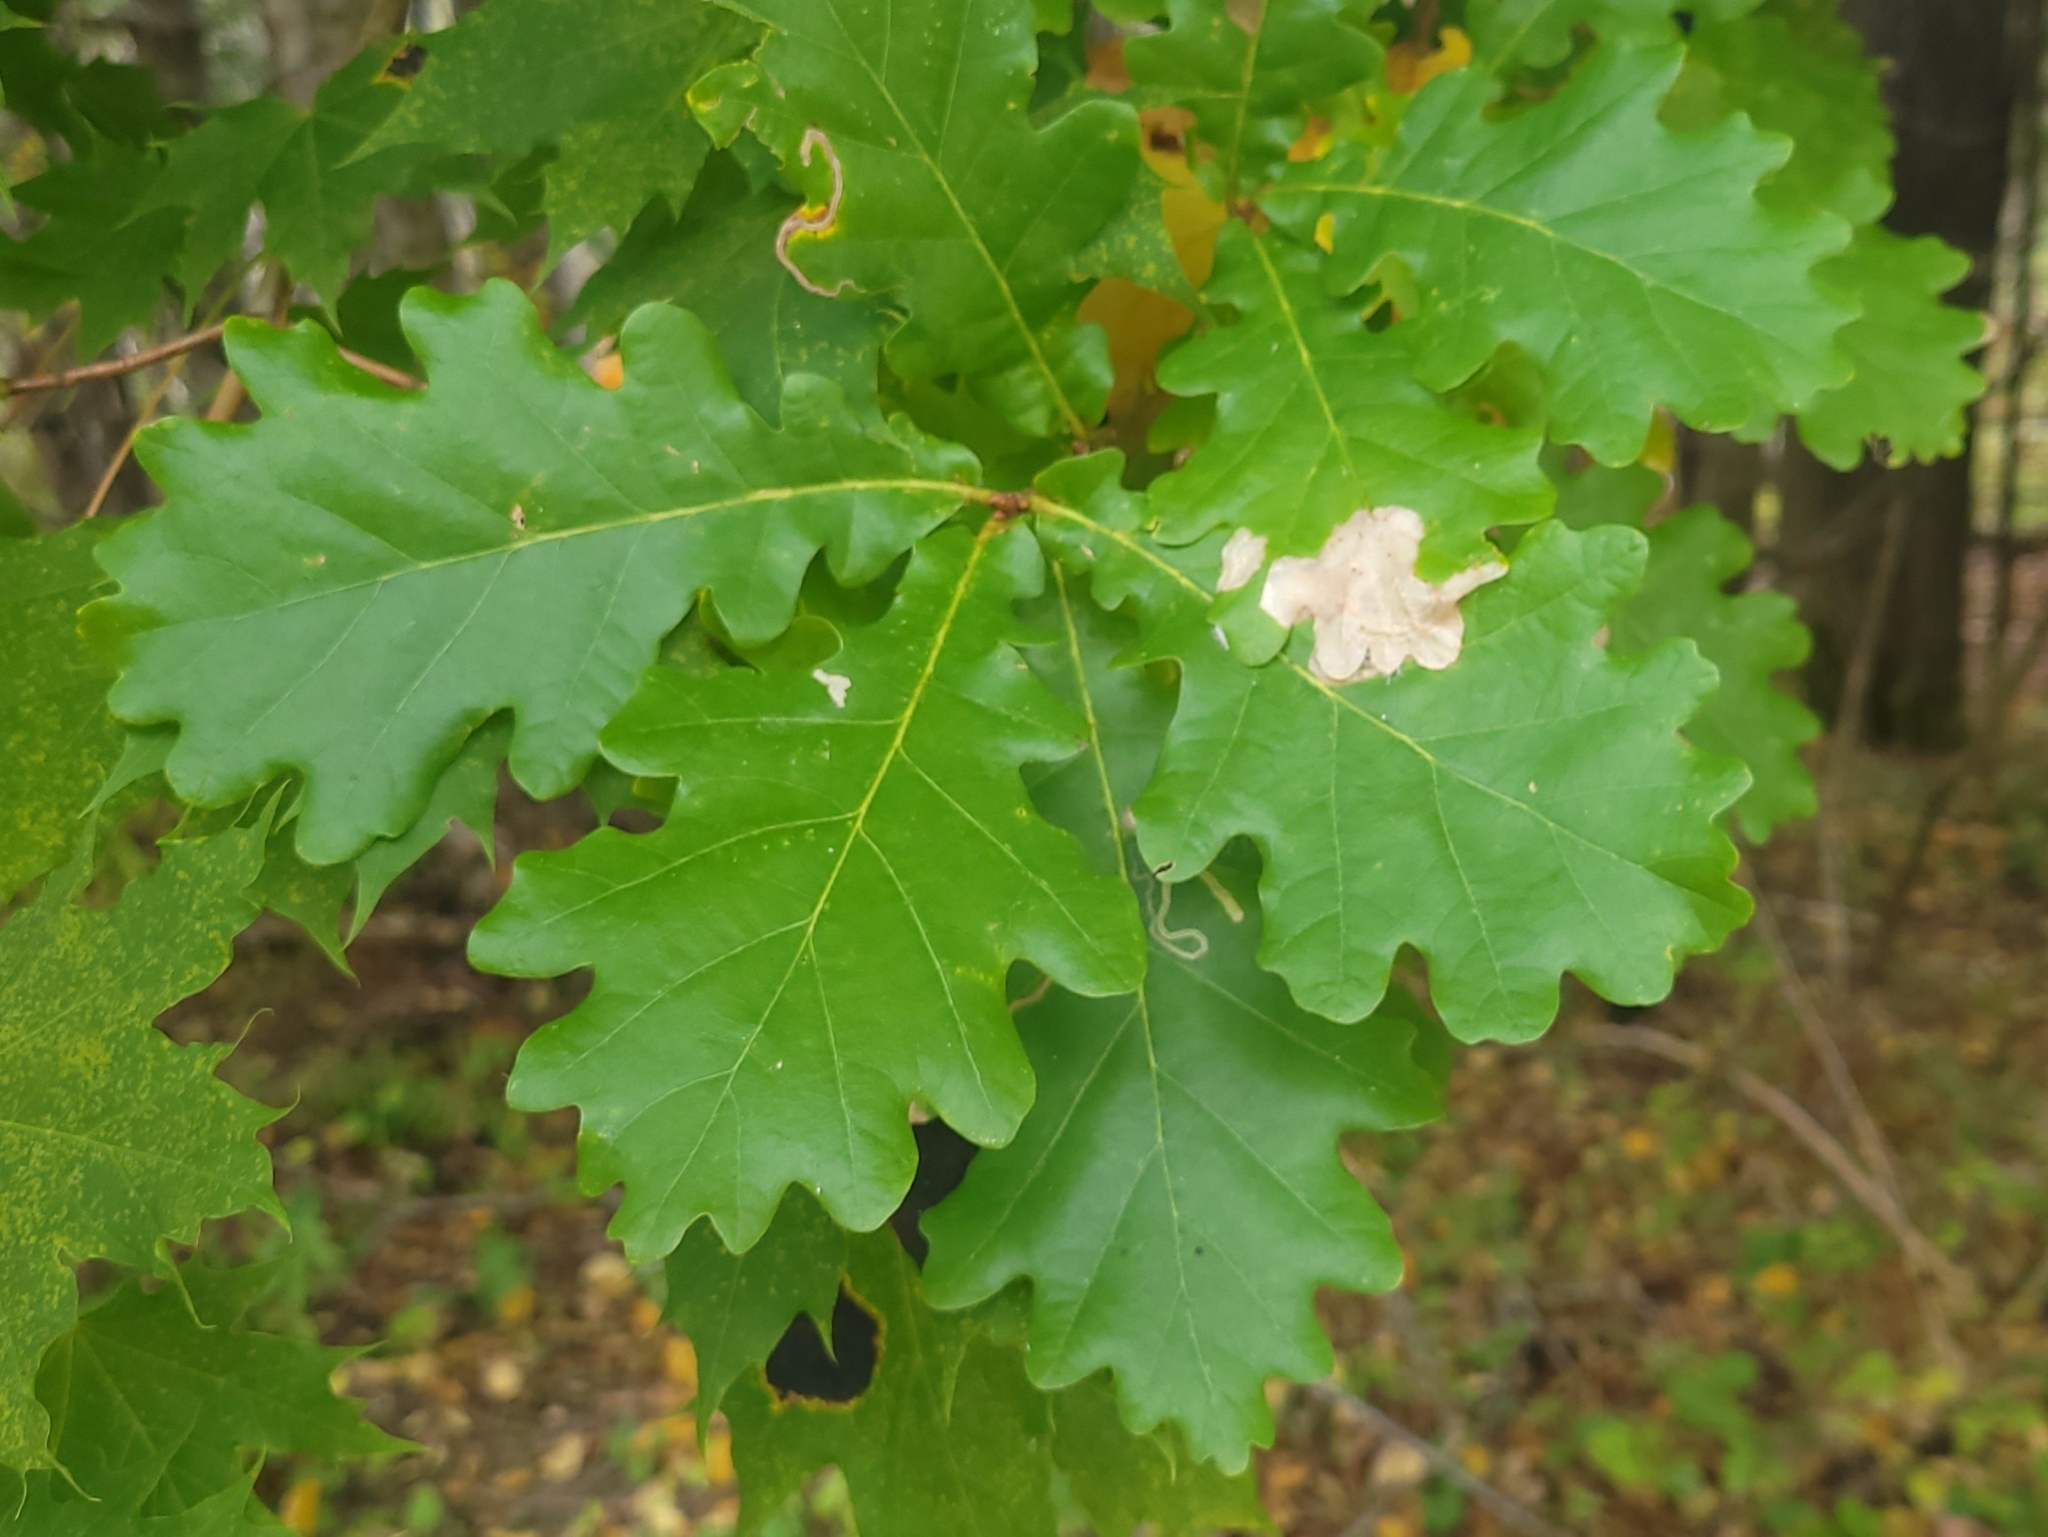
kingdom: Plantae
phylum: Tracheophyta
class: Magnoliopsida
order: Fagales
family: Fagaceae
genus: Quercus
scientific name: Quercus robur
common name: Pedunculate oak
